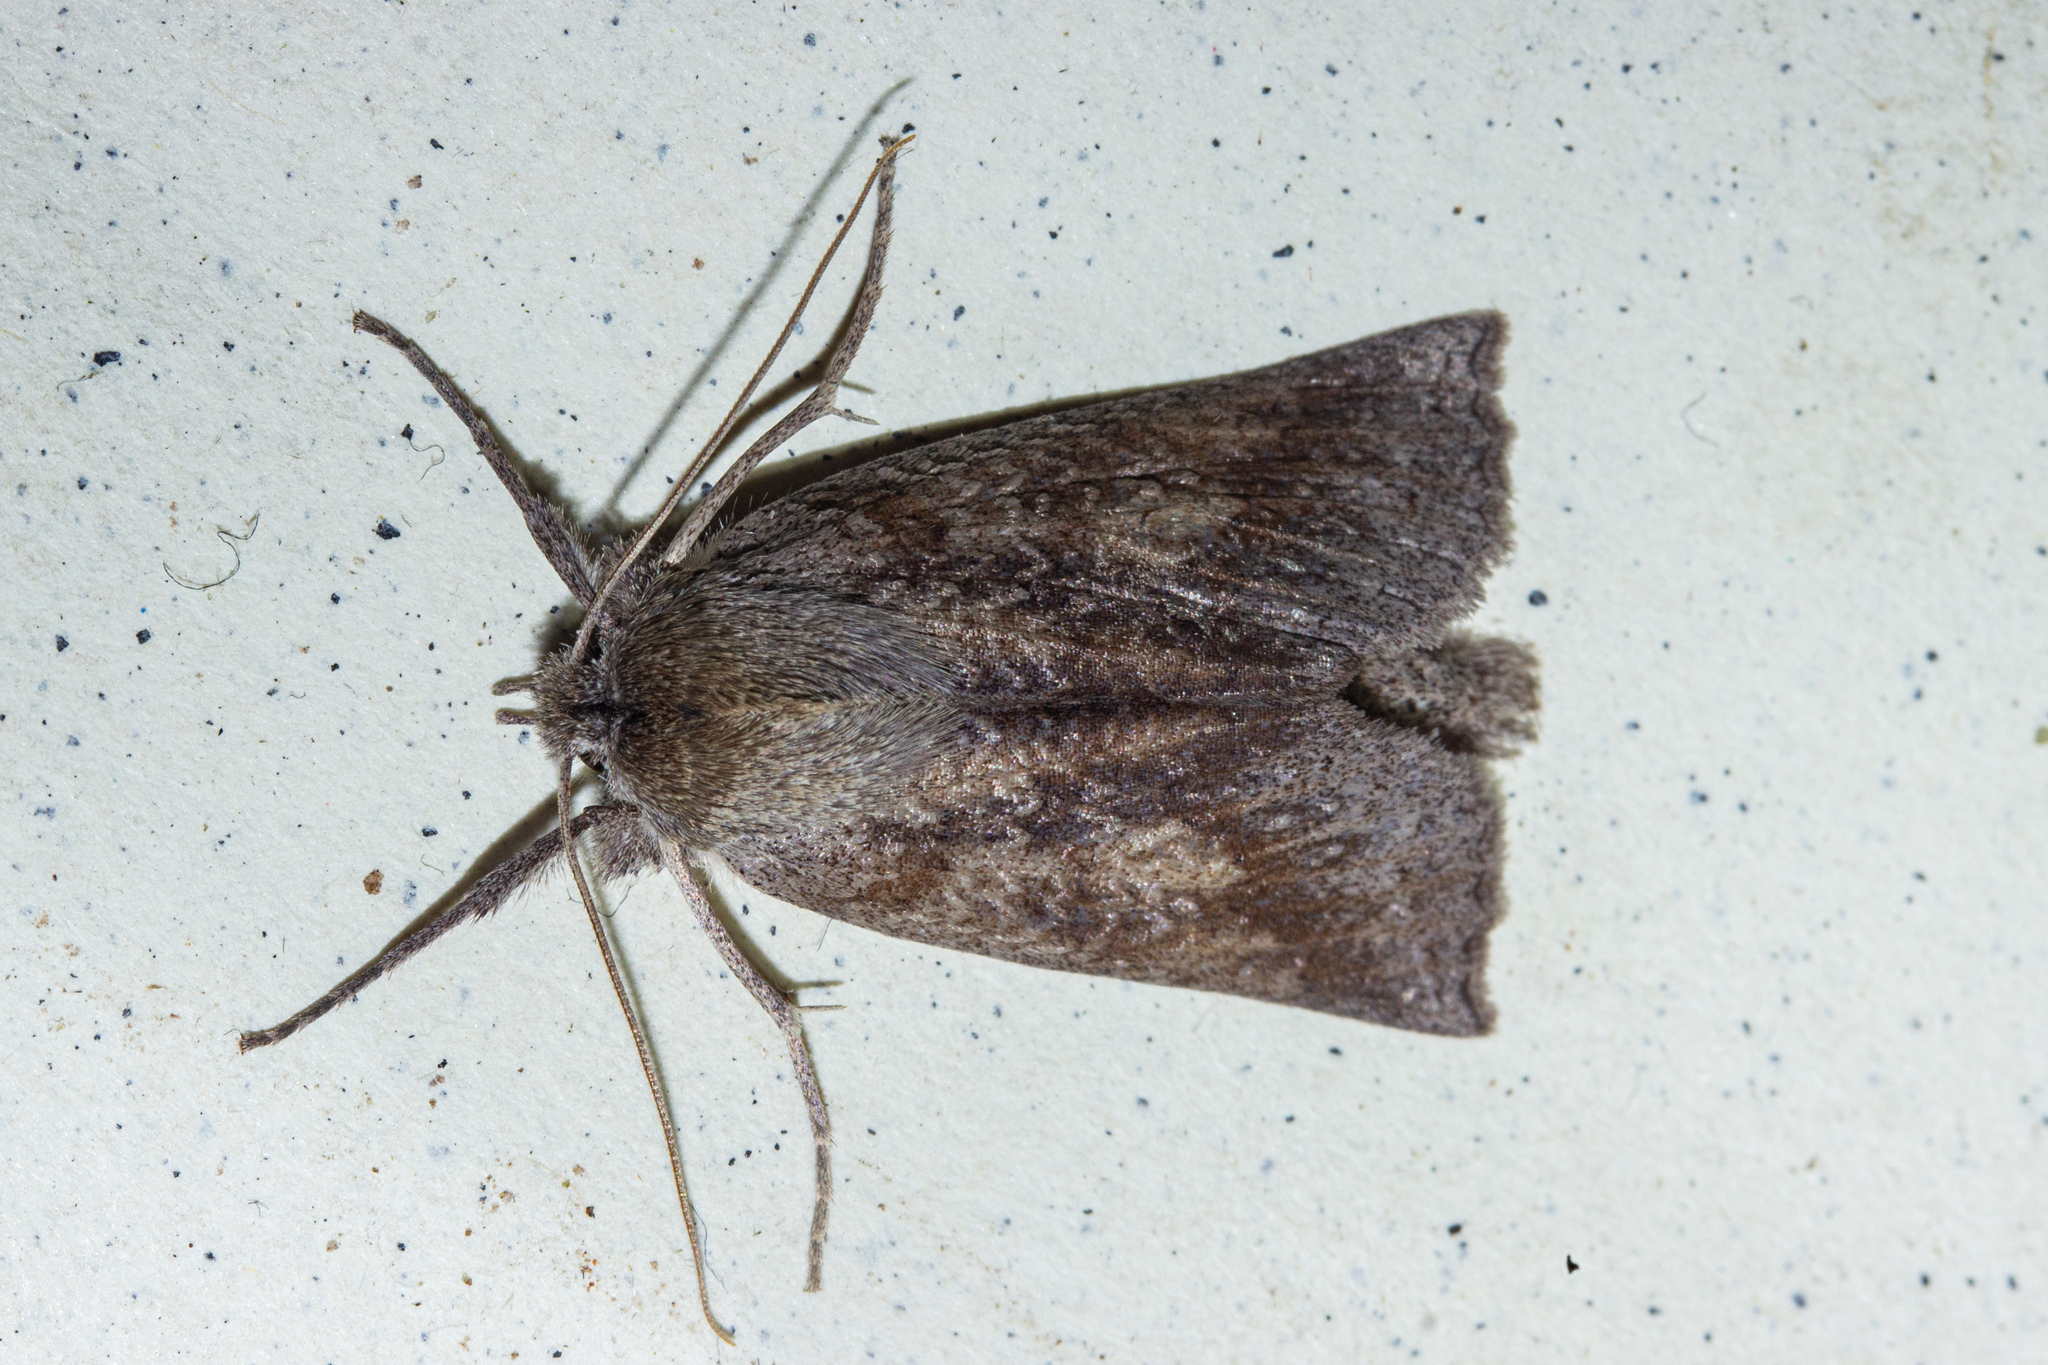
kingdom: Animalia
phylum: Arthropoda
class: Insecta
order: Lepidoptera
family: Geometridae
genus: Declana
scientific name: Declana leptomera
